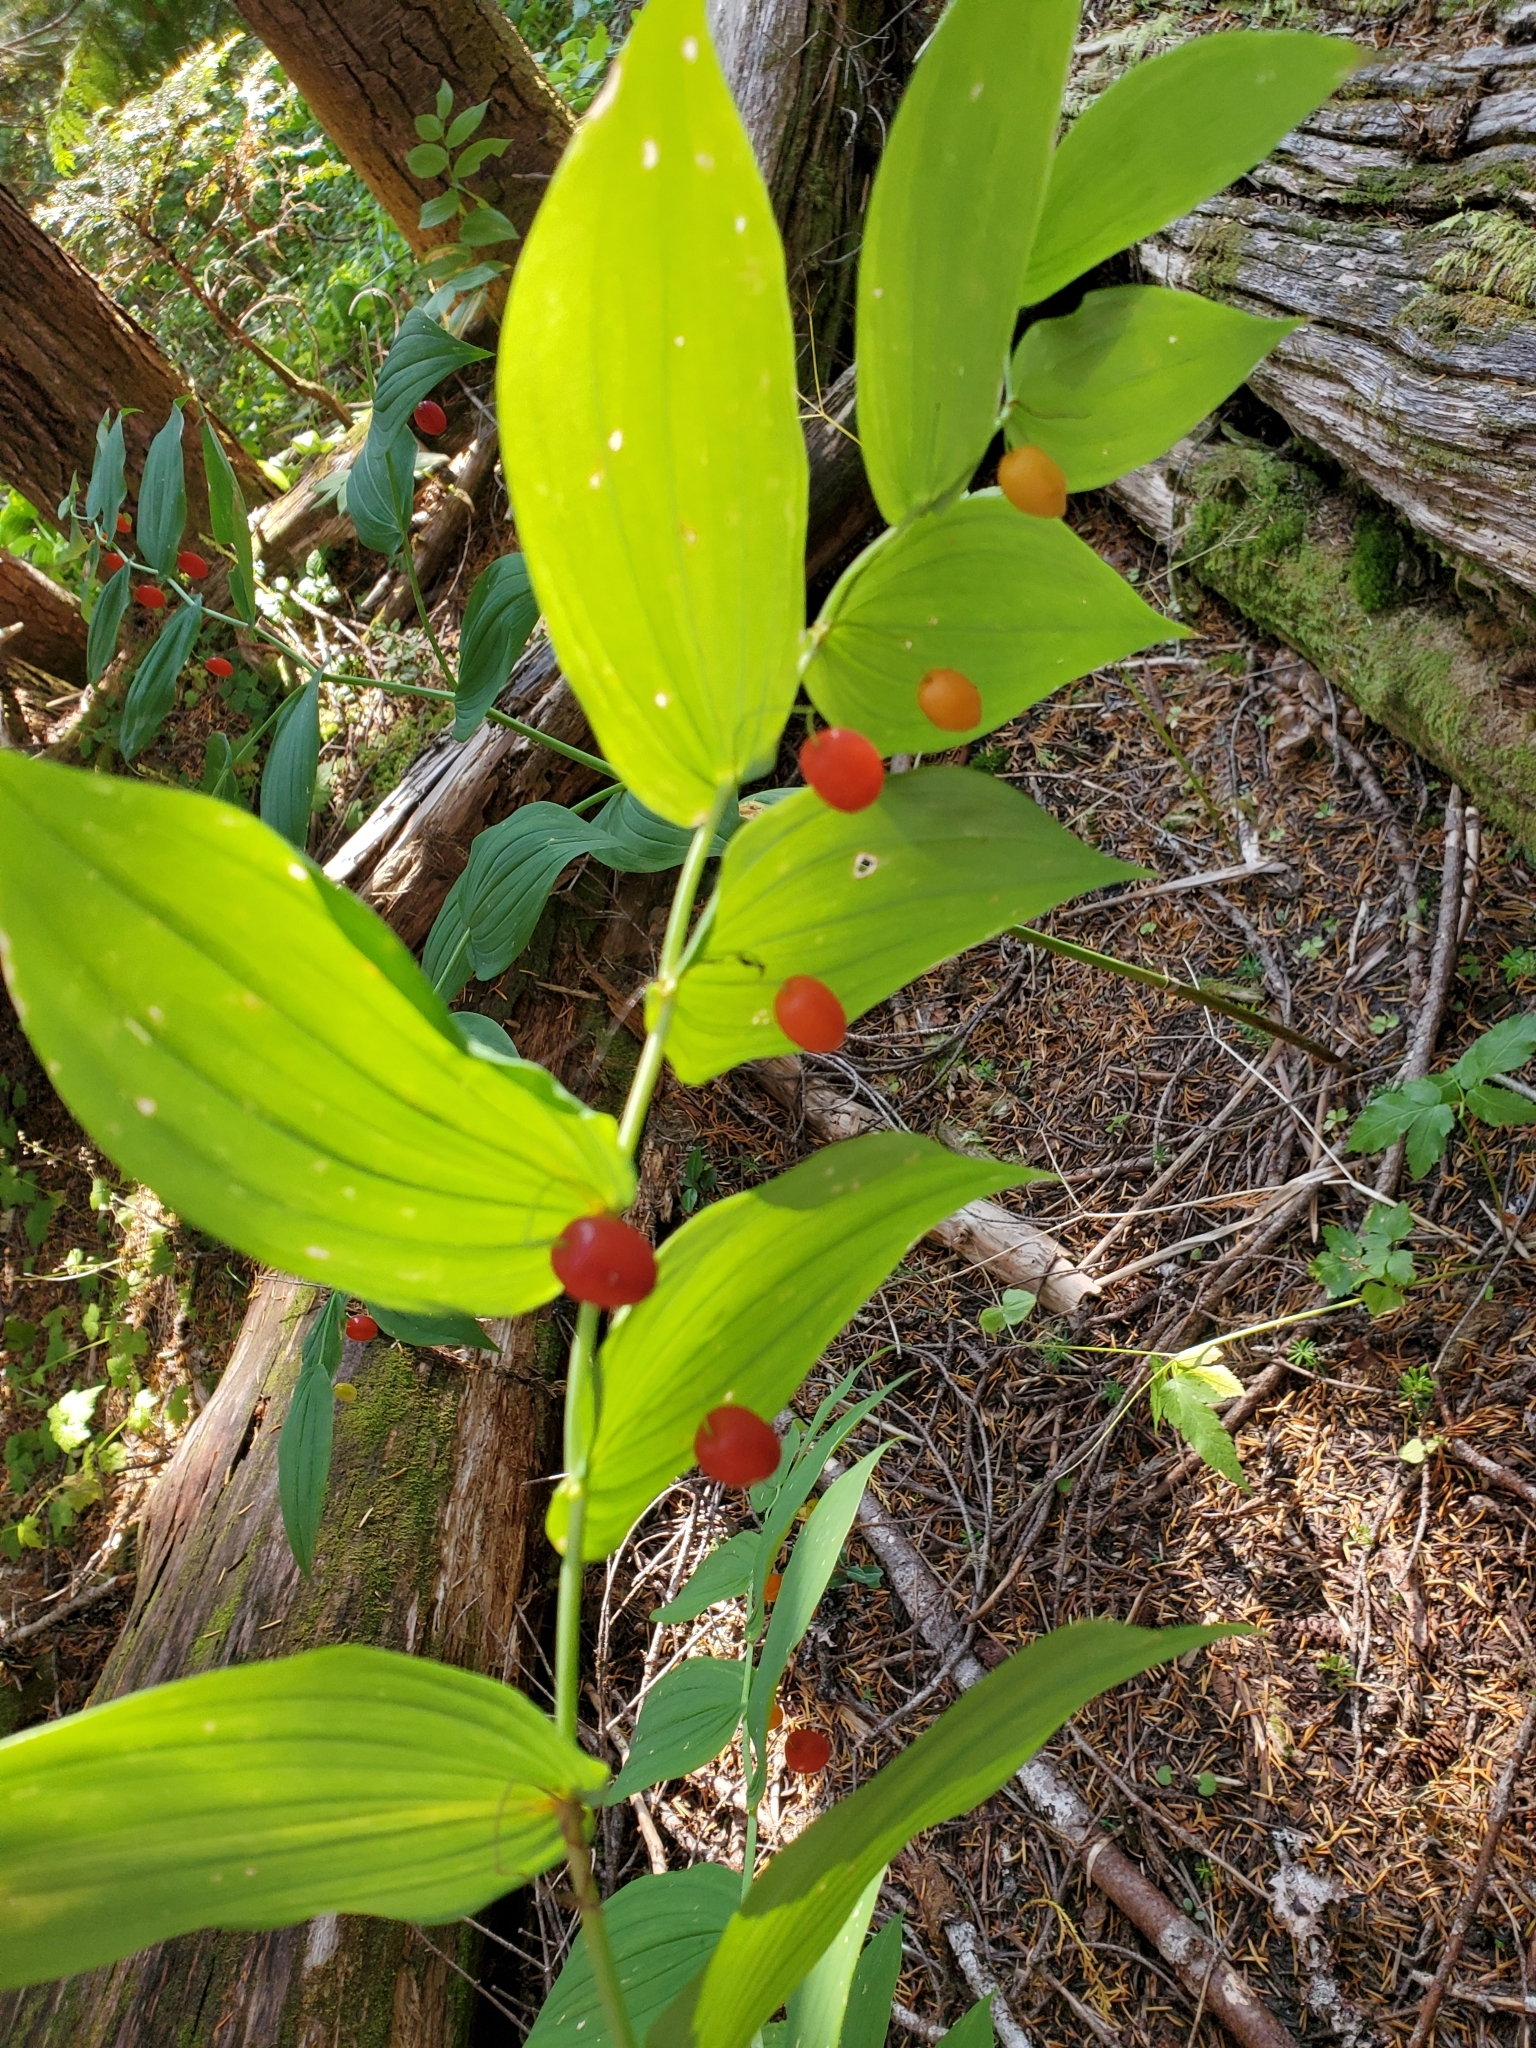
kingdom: Plantae
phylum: Tracheophyta
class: Liliopsida
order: Liliales
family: Liliaceae
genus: Streptopus
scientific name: Streptopus amplexifolius
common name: Clasp twisted stalk
